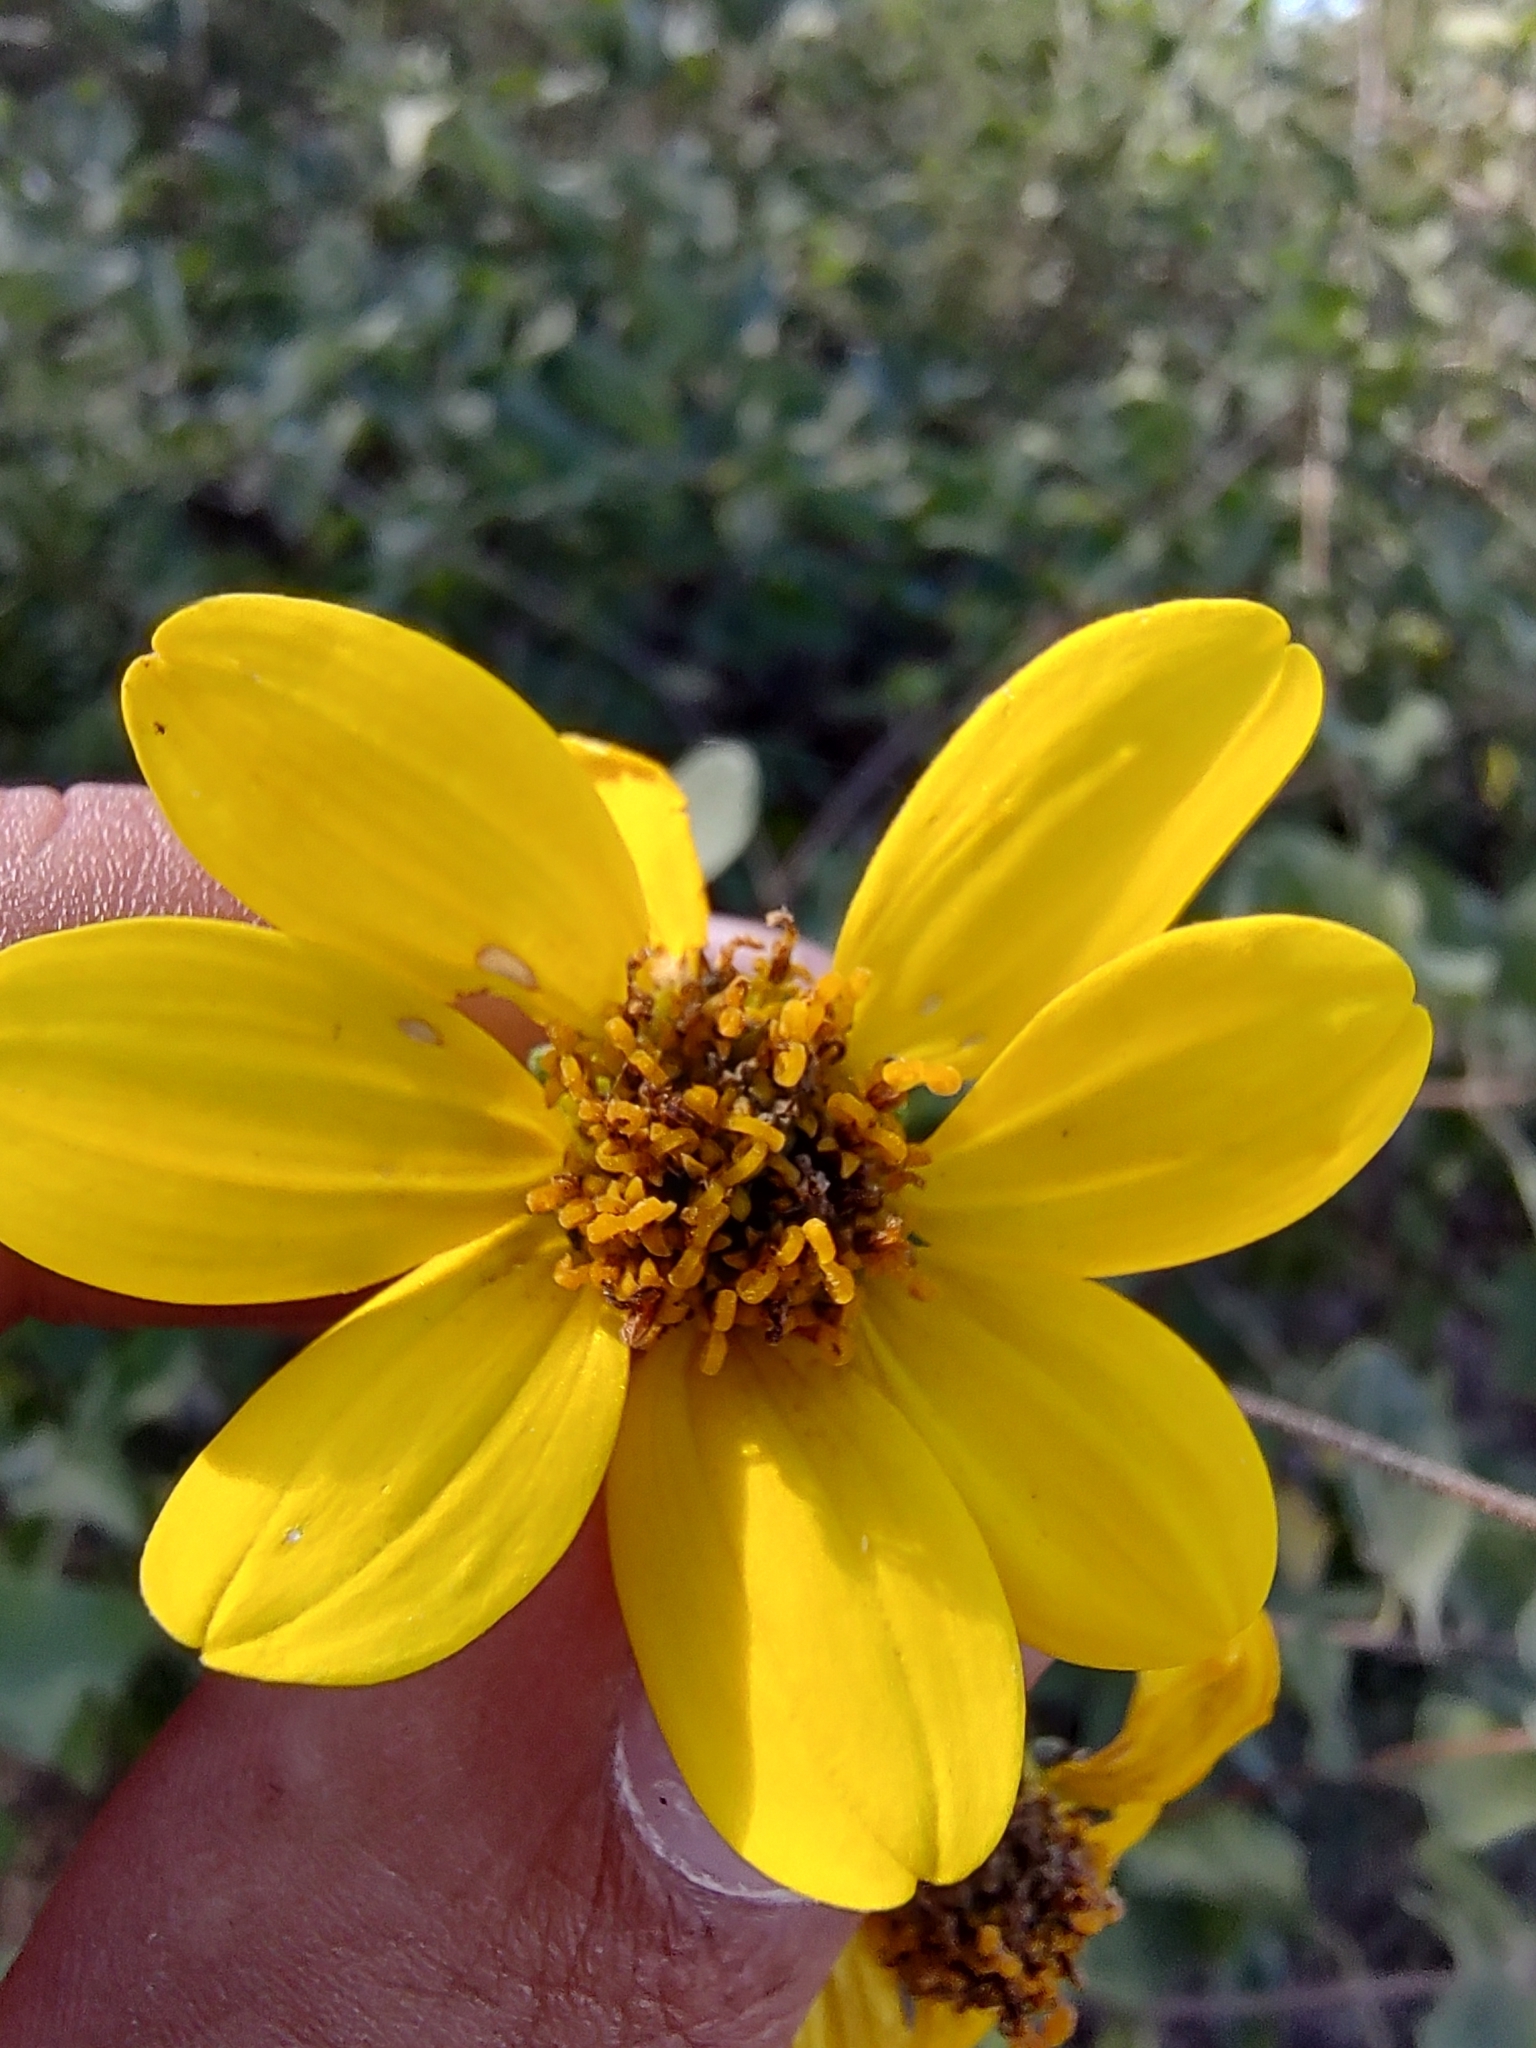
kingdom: Plantae
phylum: Tracheophyta
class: Magnoliopsida
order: Asterales
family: Asteraceae
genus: Bahiopsis
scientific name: Bahiopsis deltoidea
